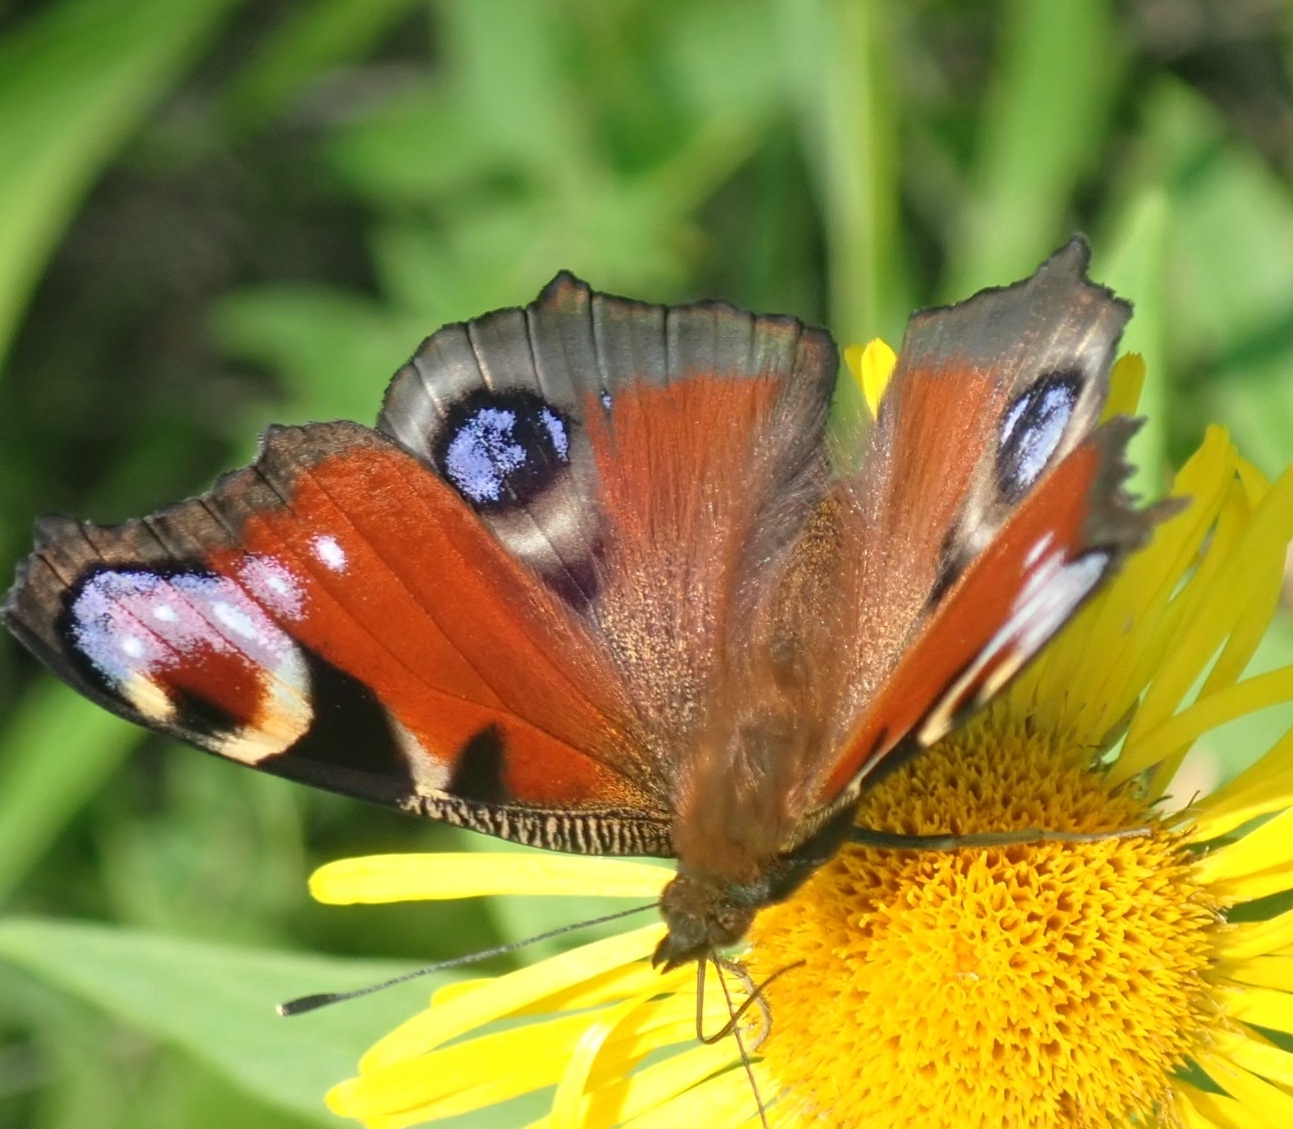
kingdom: Animalia
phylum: Arthropoda
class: Insecta
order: Lepidoptera
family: Nymphalidae
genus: Aglais
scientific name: Aglais io
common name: Peacock
